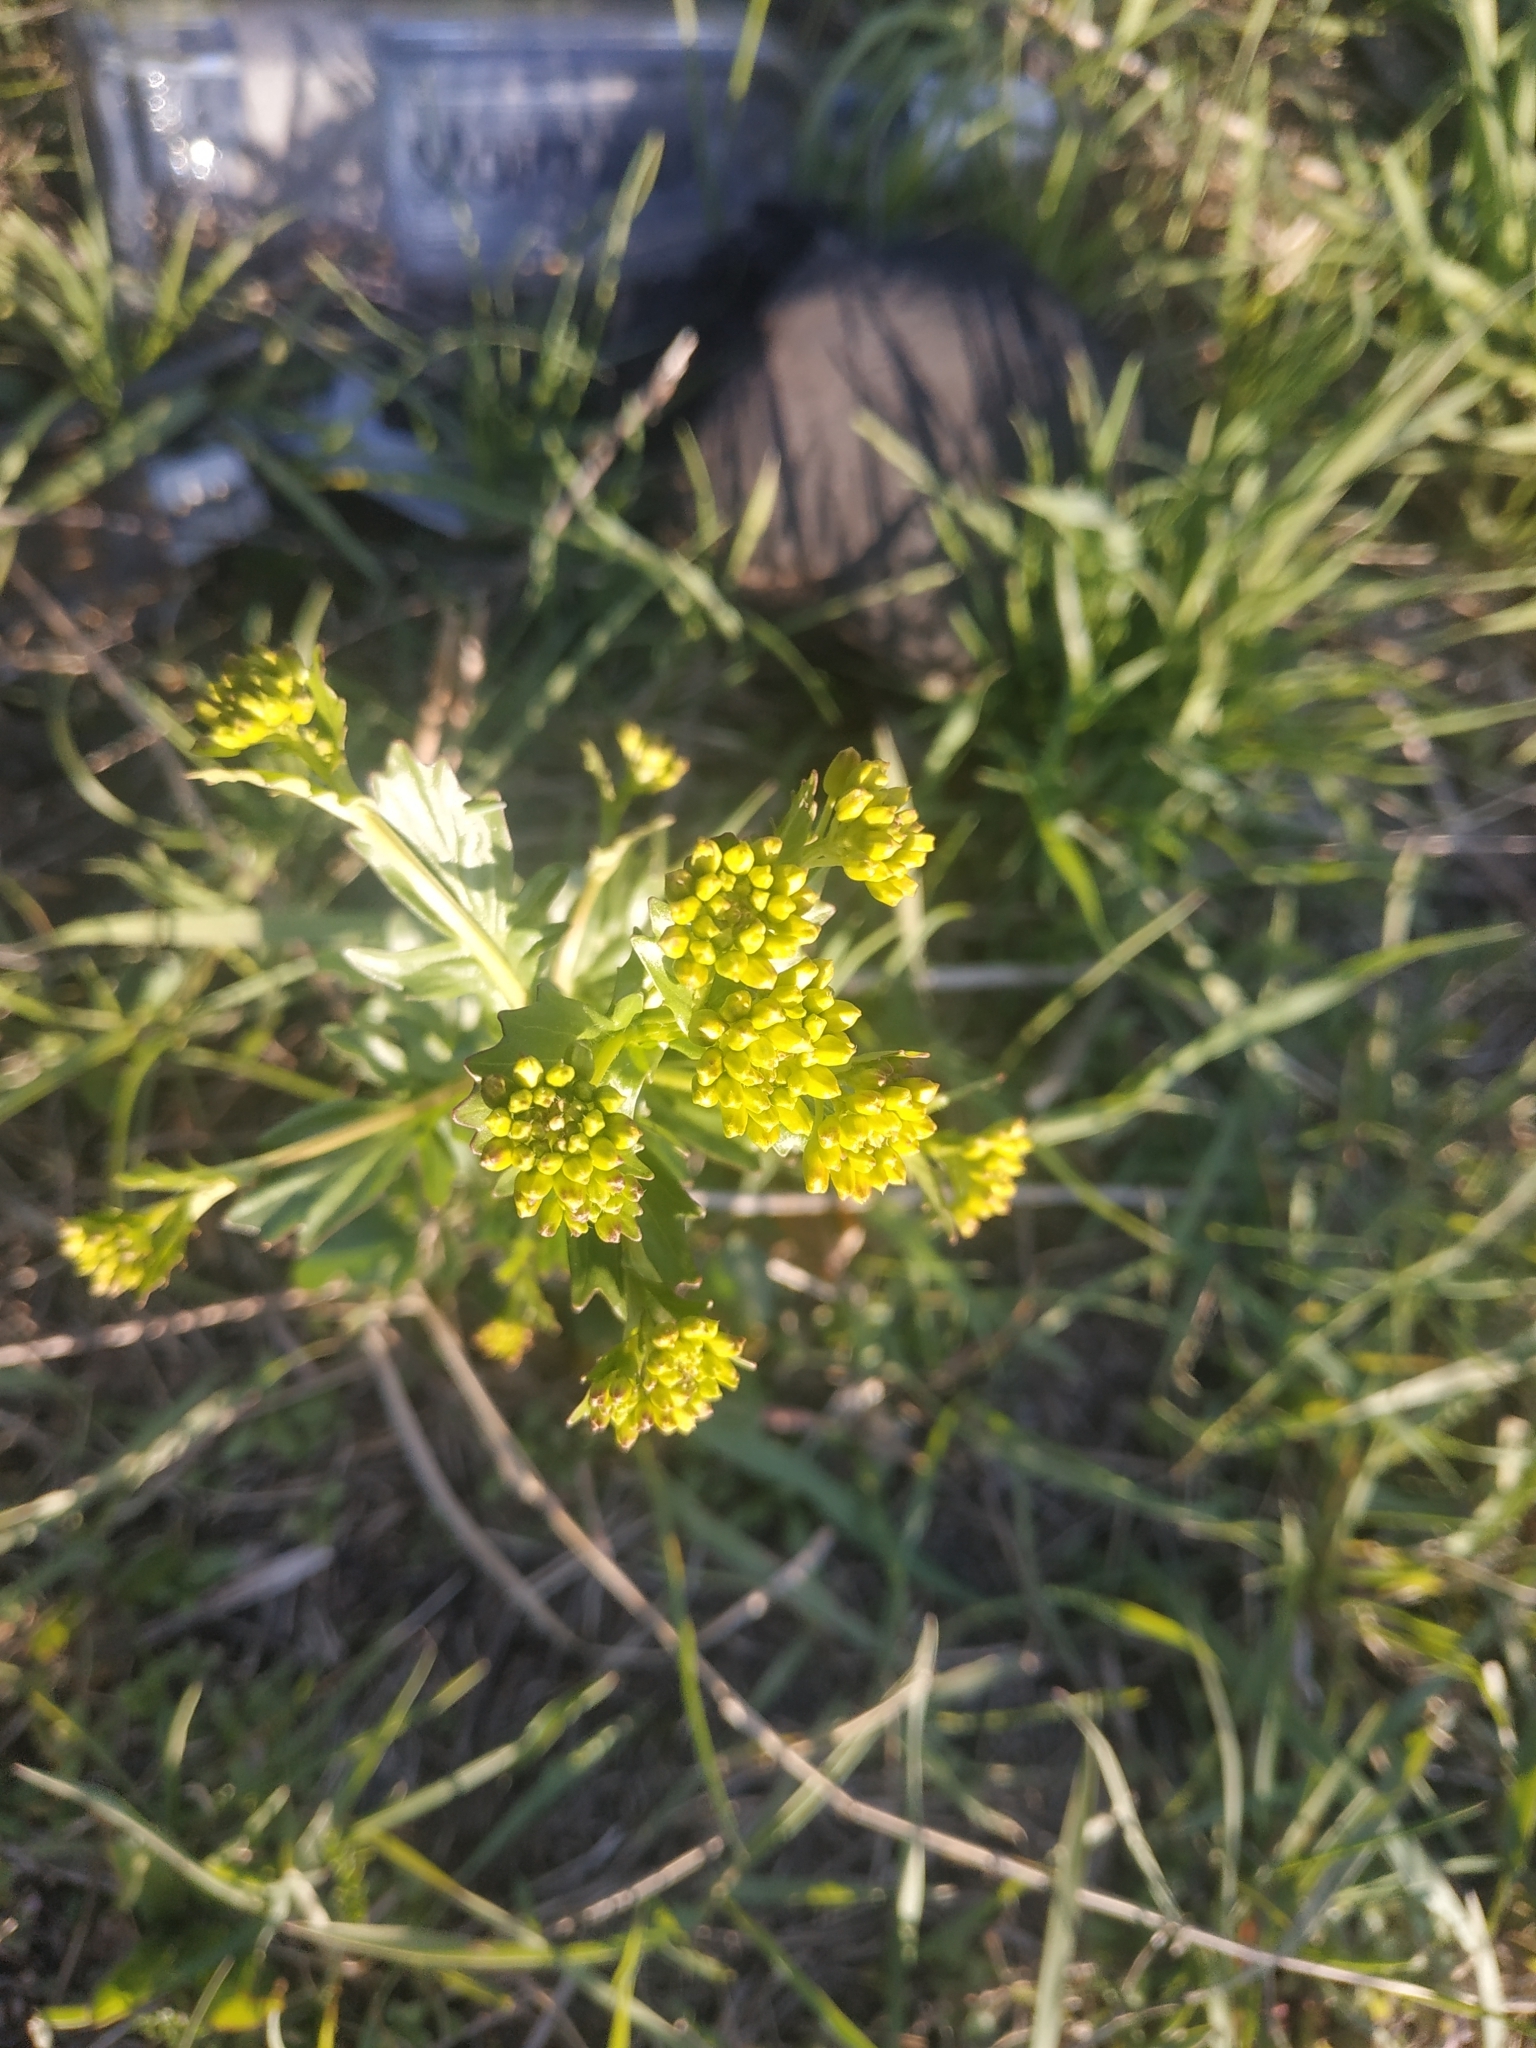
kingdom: Plantae
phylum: Tracheophyta
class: Magnoliopsida
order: Brassicales
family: Brassicaceae
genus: Barbarea
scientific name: Barbarea vulgaris
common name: Cressy-greens
